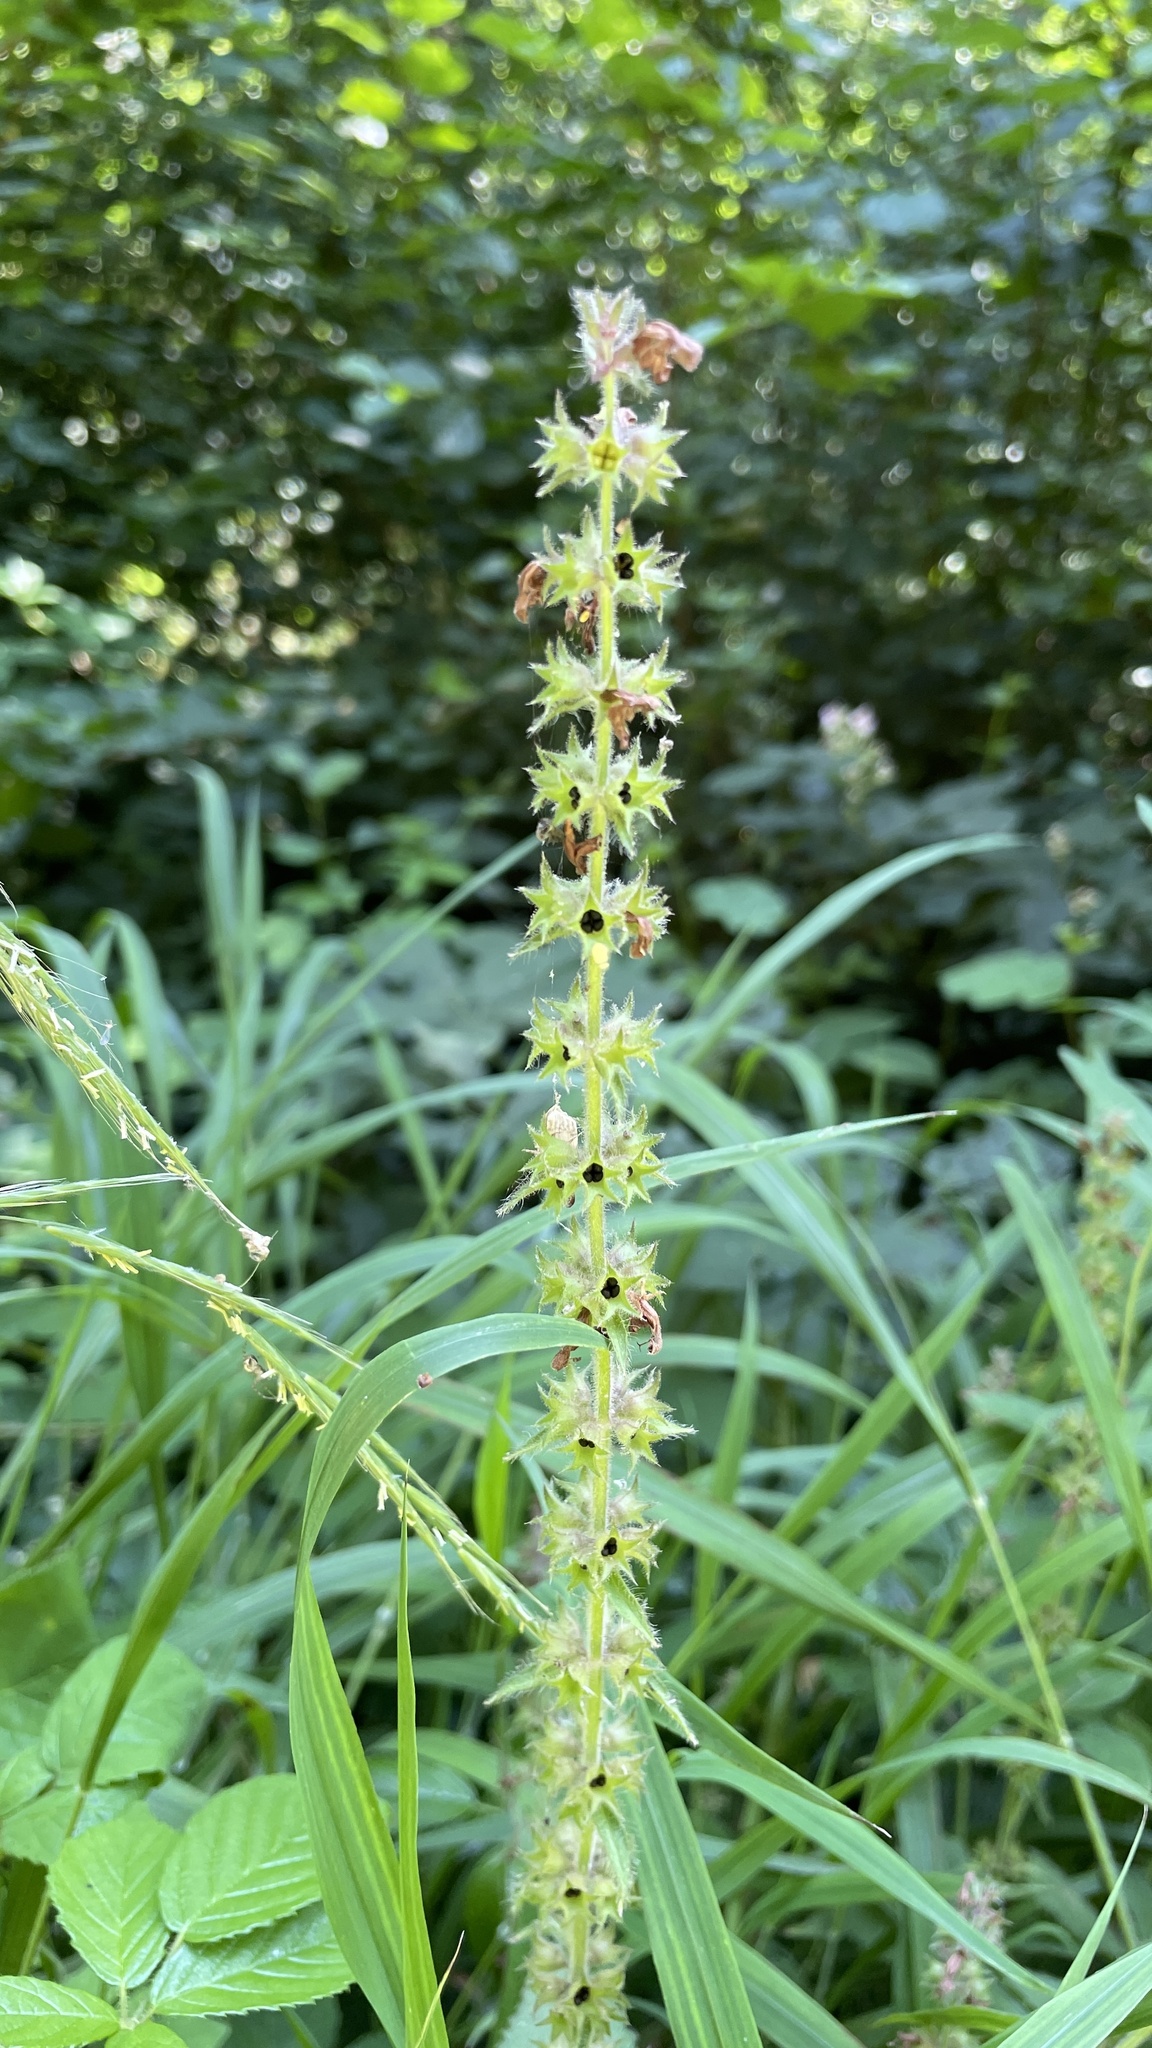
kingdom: Plantae
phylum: Tracheophyta
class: Magnoliopsida
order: Lamiales
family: Lamiaceae
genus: Stachys
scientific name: Stachys sylvatica
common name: Hedge woundwort
